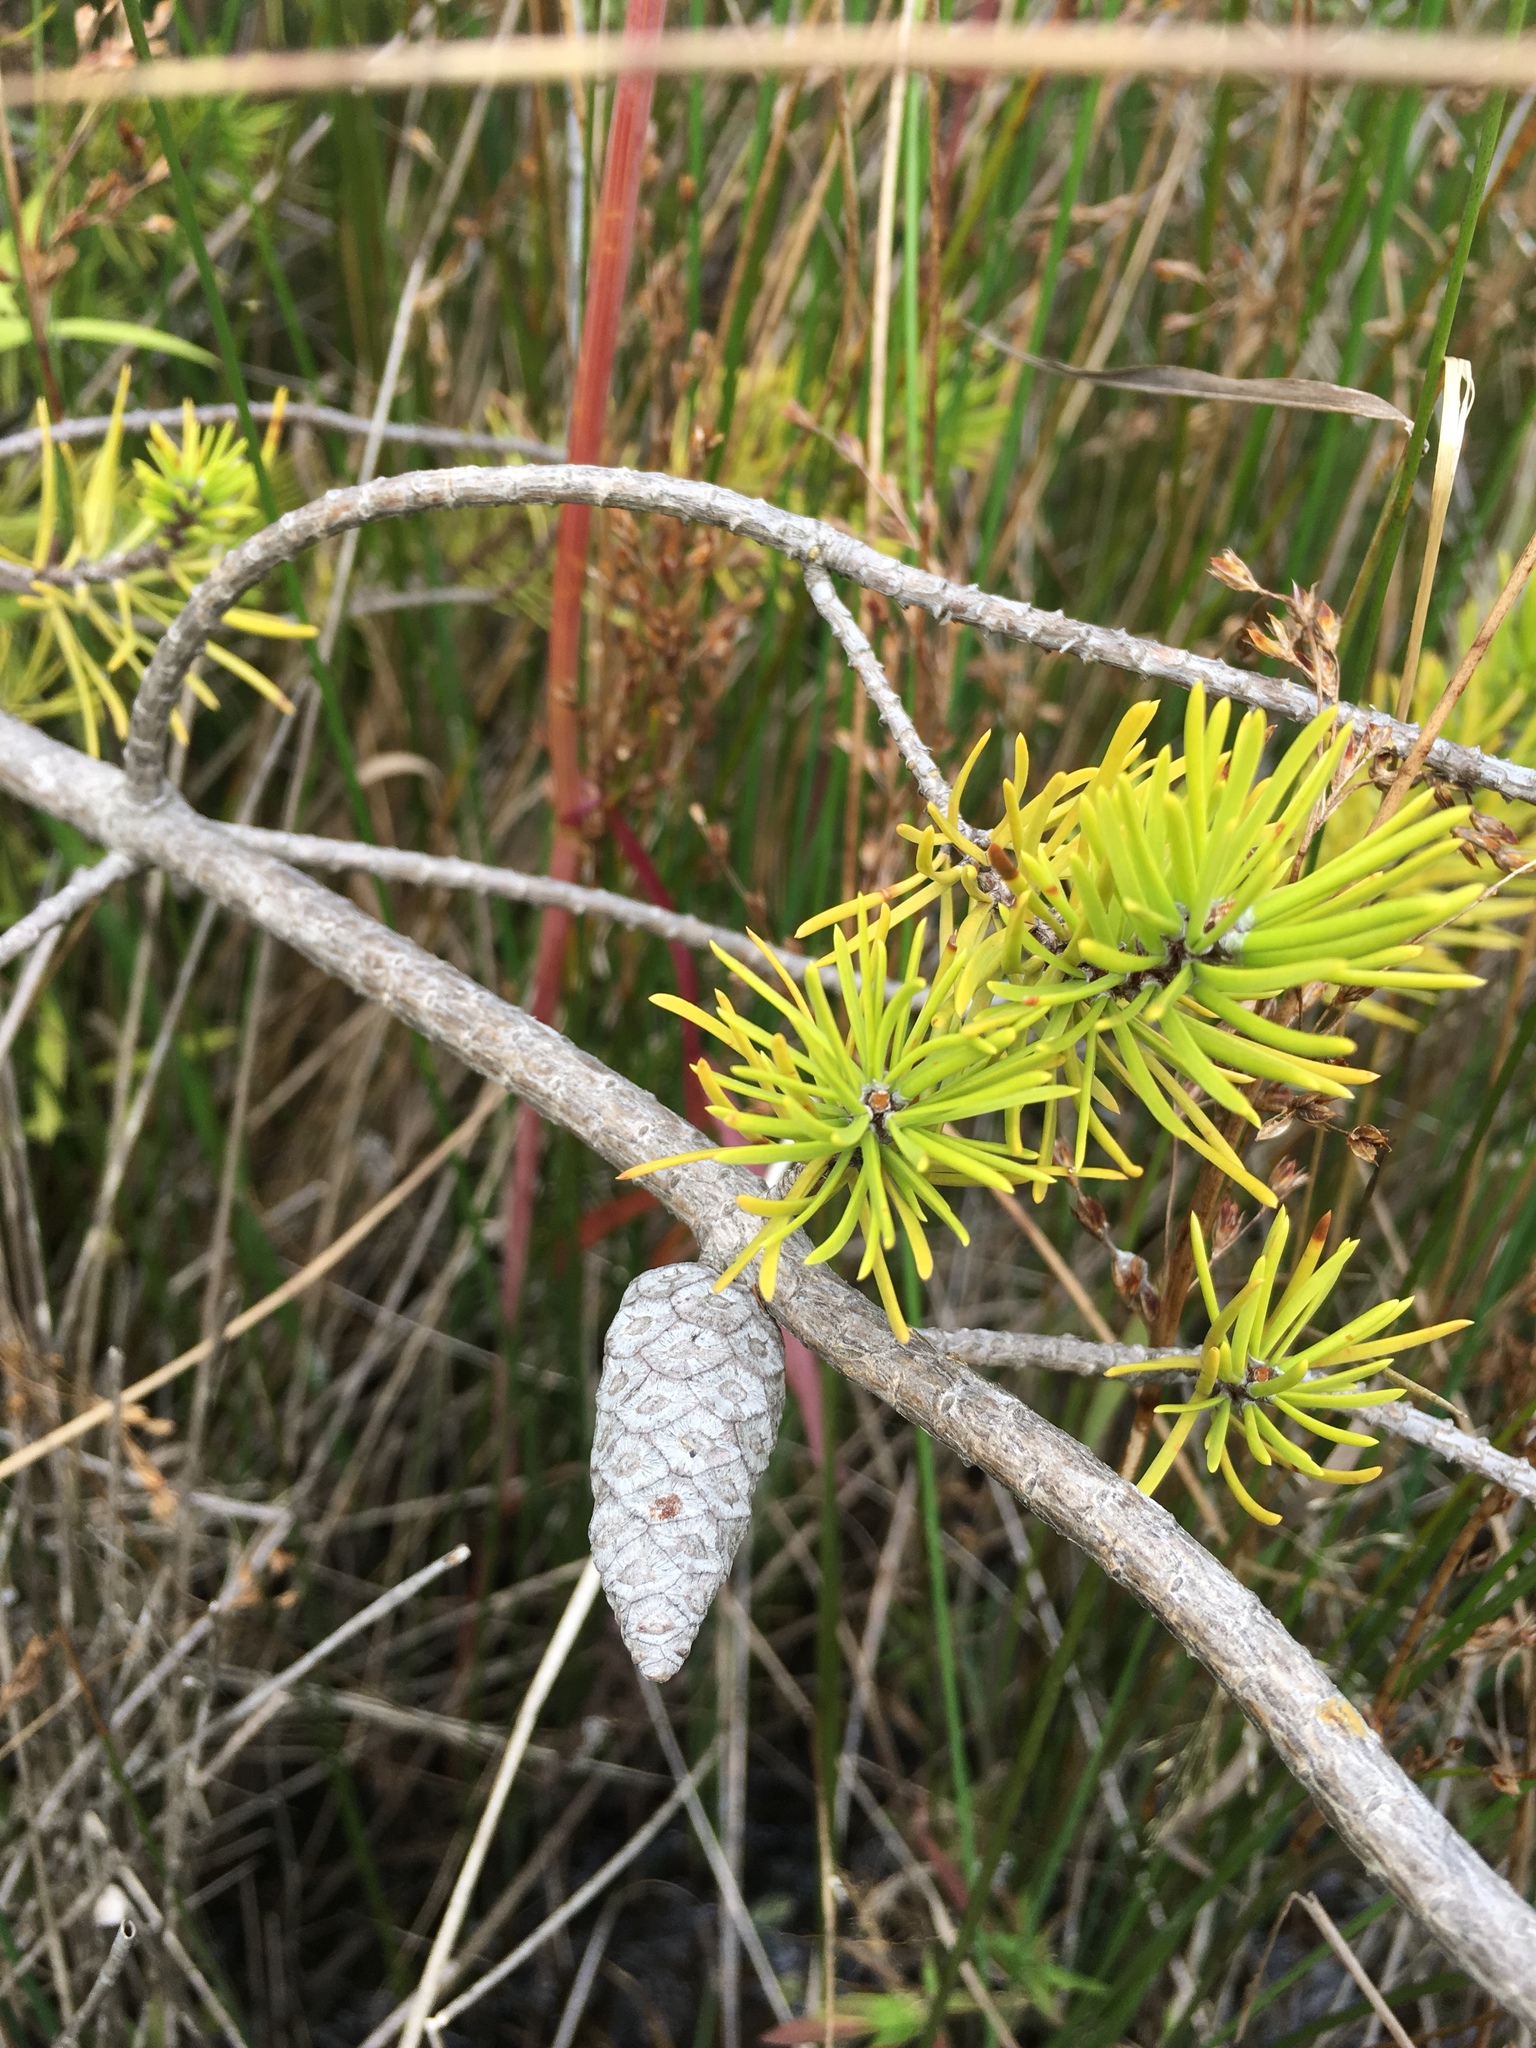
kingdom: Plantae
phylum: Tracheophyta
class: Pinopsida
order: Pinales
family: Pinaceae
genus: Pinus
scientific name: Pinus banksiana
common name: Jack pine
